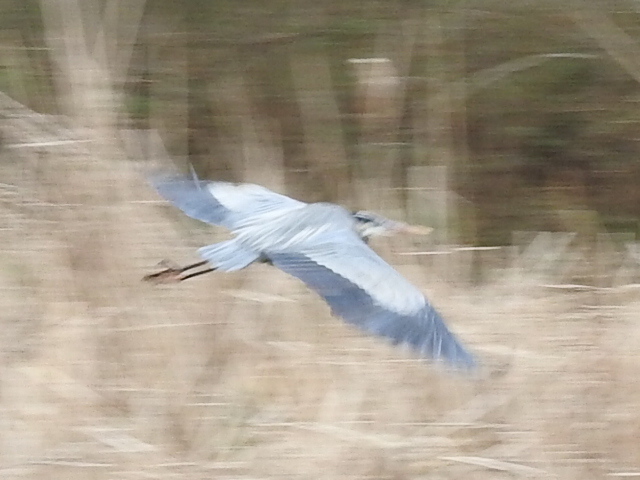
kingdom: Animalia
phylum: Chordata
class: Aves
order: Pelecaniformes
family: Ardeidae
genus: Ardea
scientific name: Ardea herodias
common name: Great blue heron
